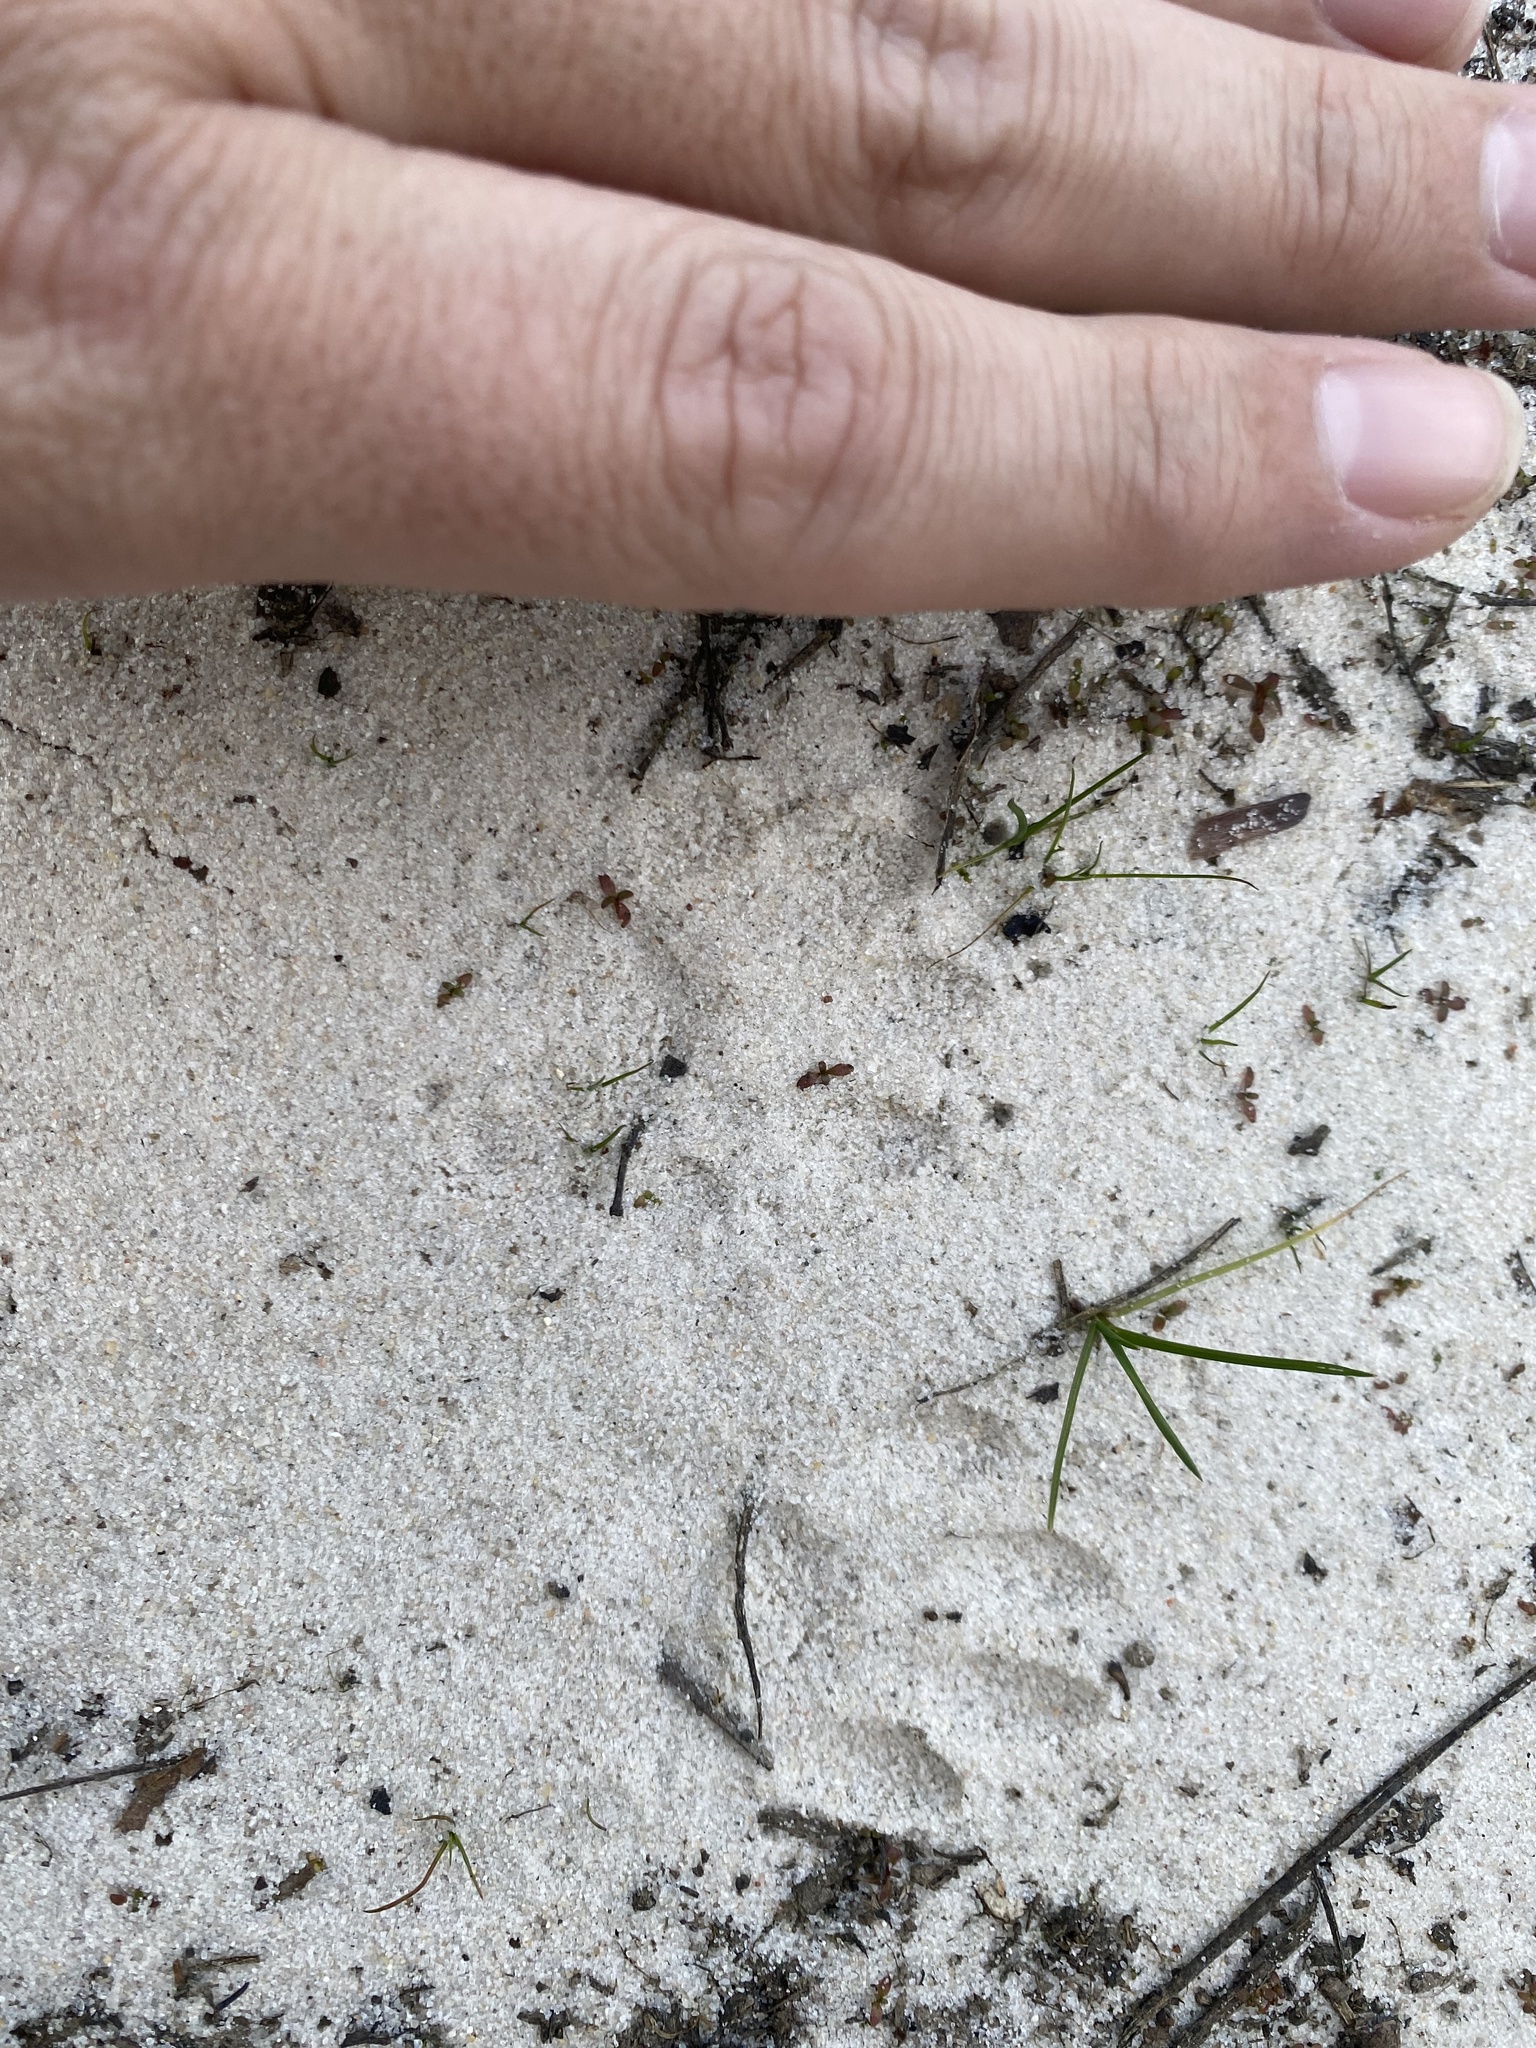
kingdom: Animalia
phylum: Chordata
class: Mammalia
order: Carnivora
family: Procyonidae
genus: Procyon
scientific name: Procyon lotor
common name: Raccoon
